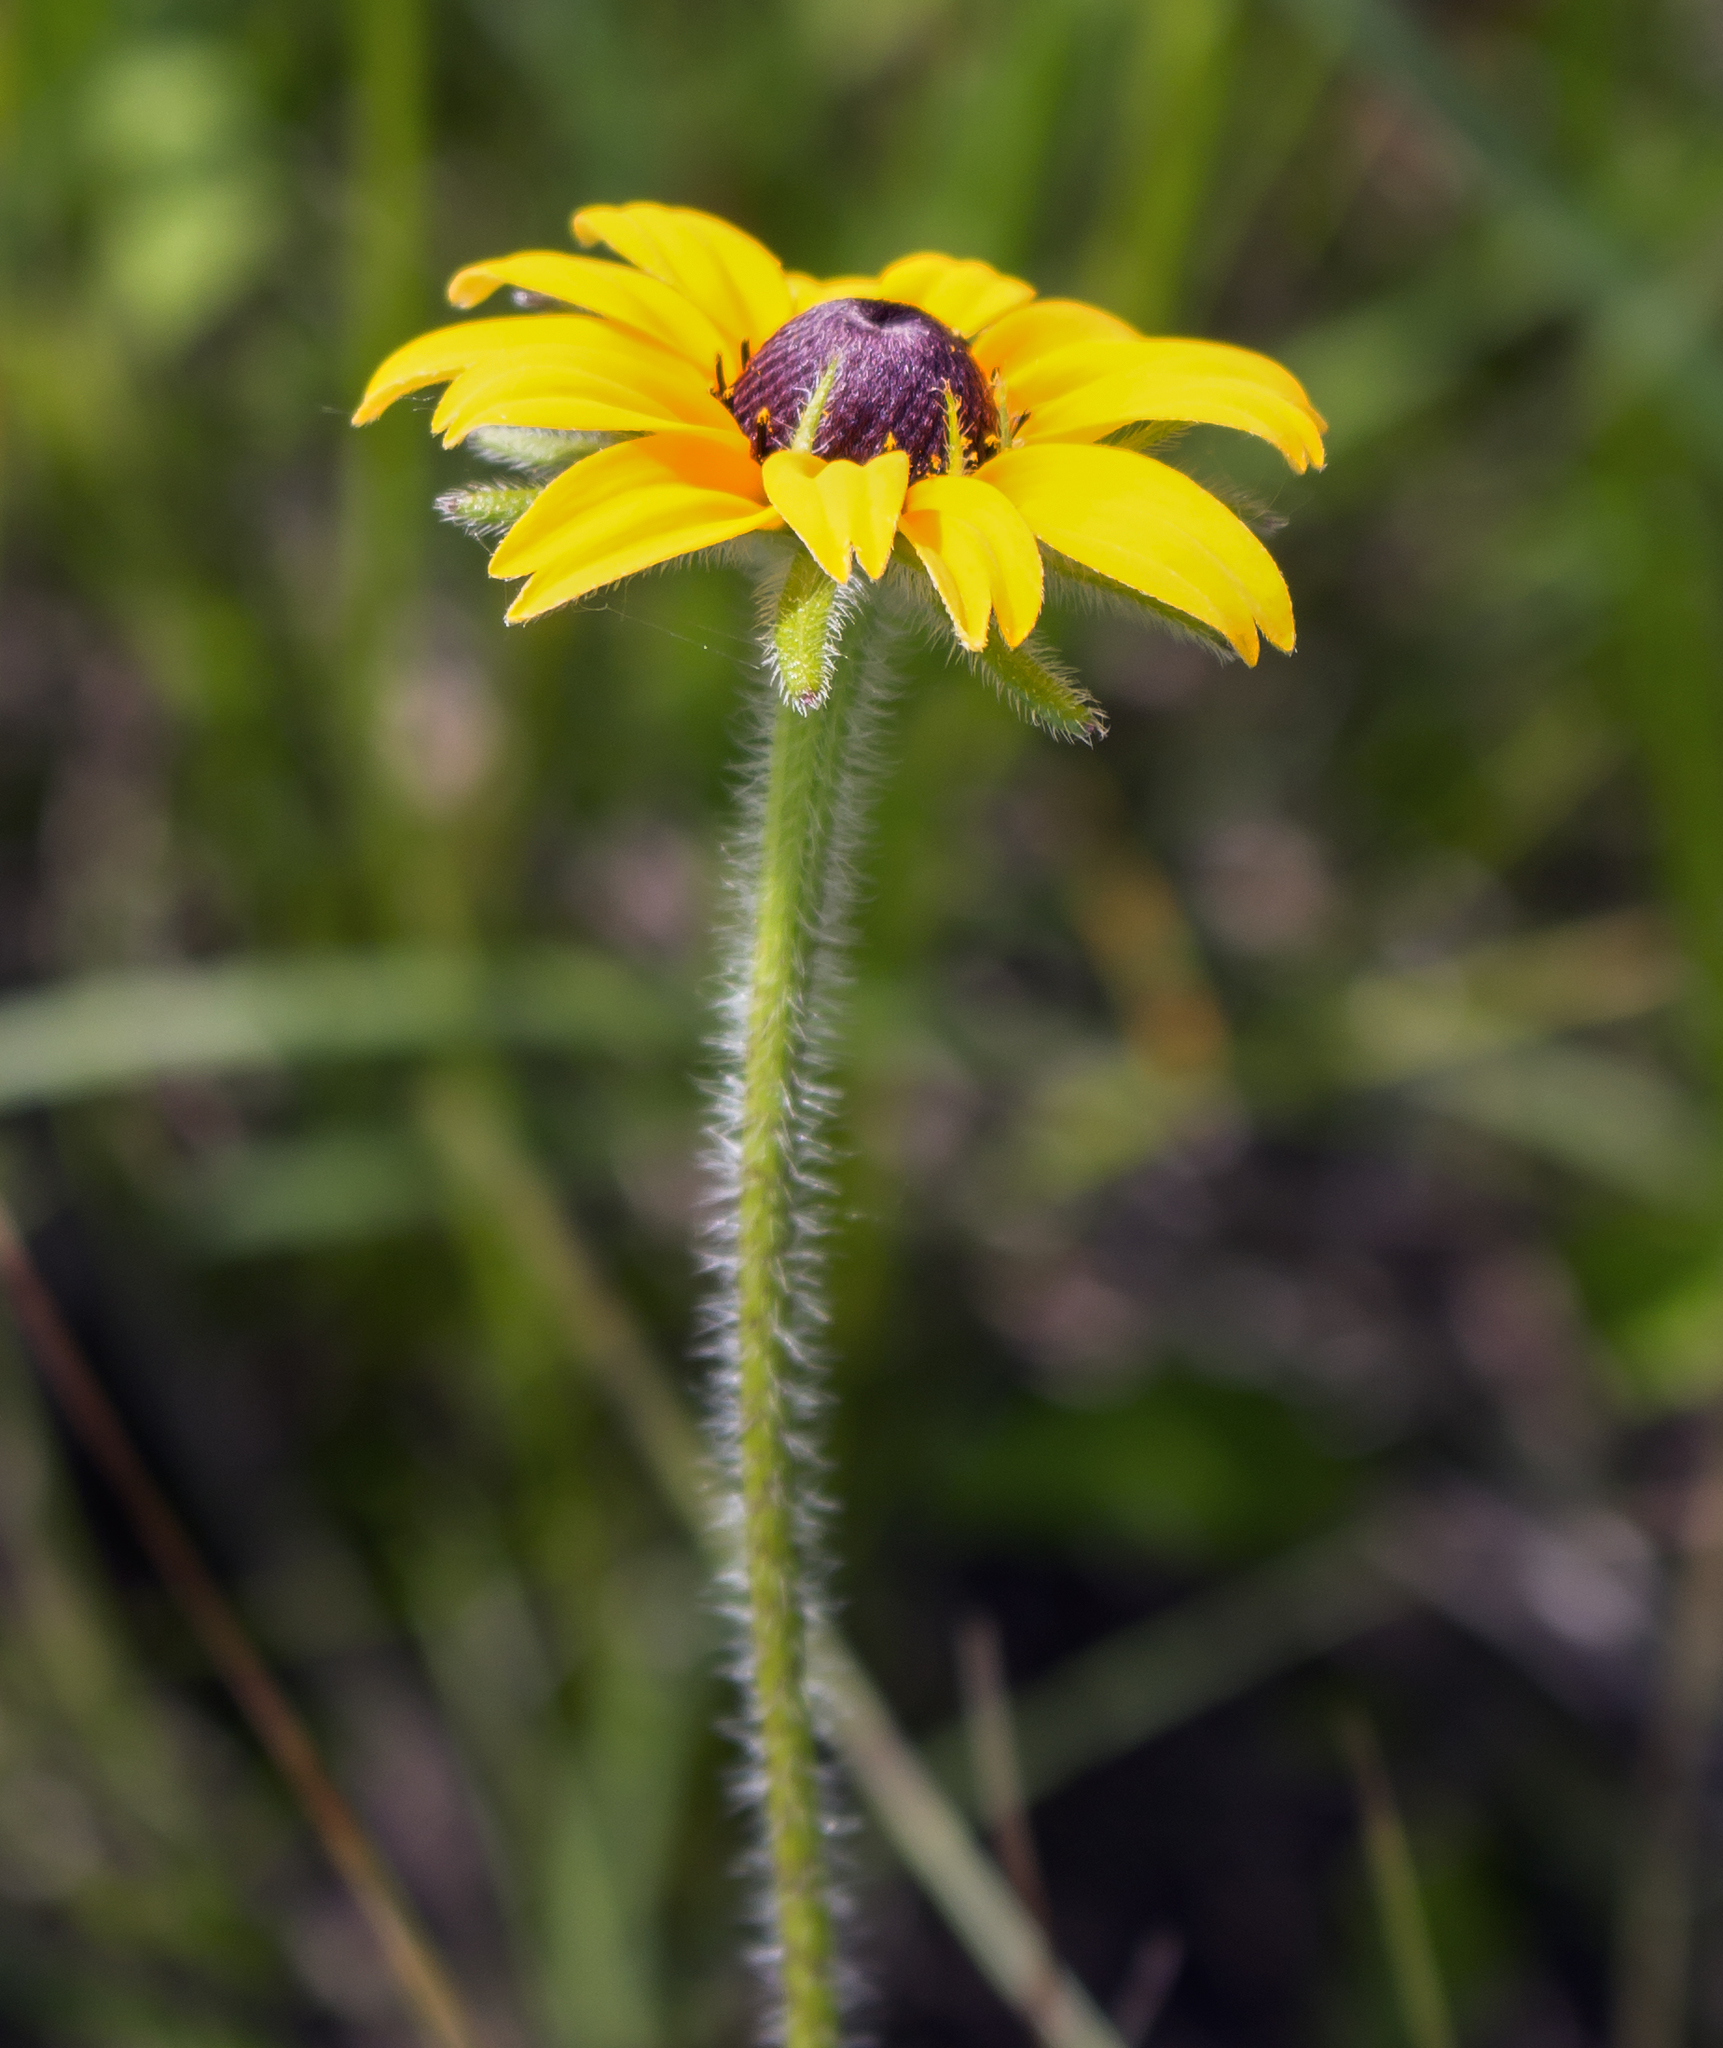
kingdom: Plantae
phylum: Tracheophyta
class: Magnoliopsida
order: Asterales
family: Asteraceae
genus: Rudbeckia
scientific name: Rudbeckia hirta
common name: Black-eyed-susan
